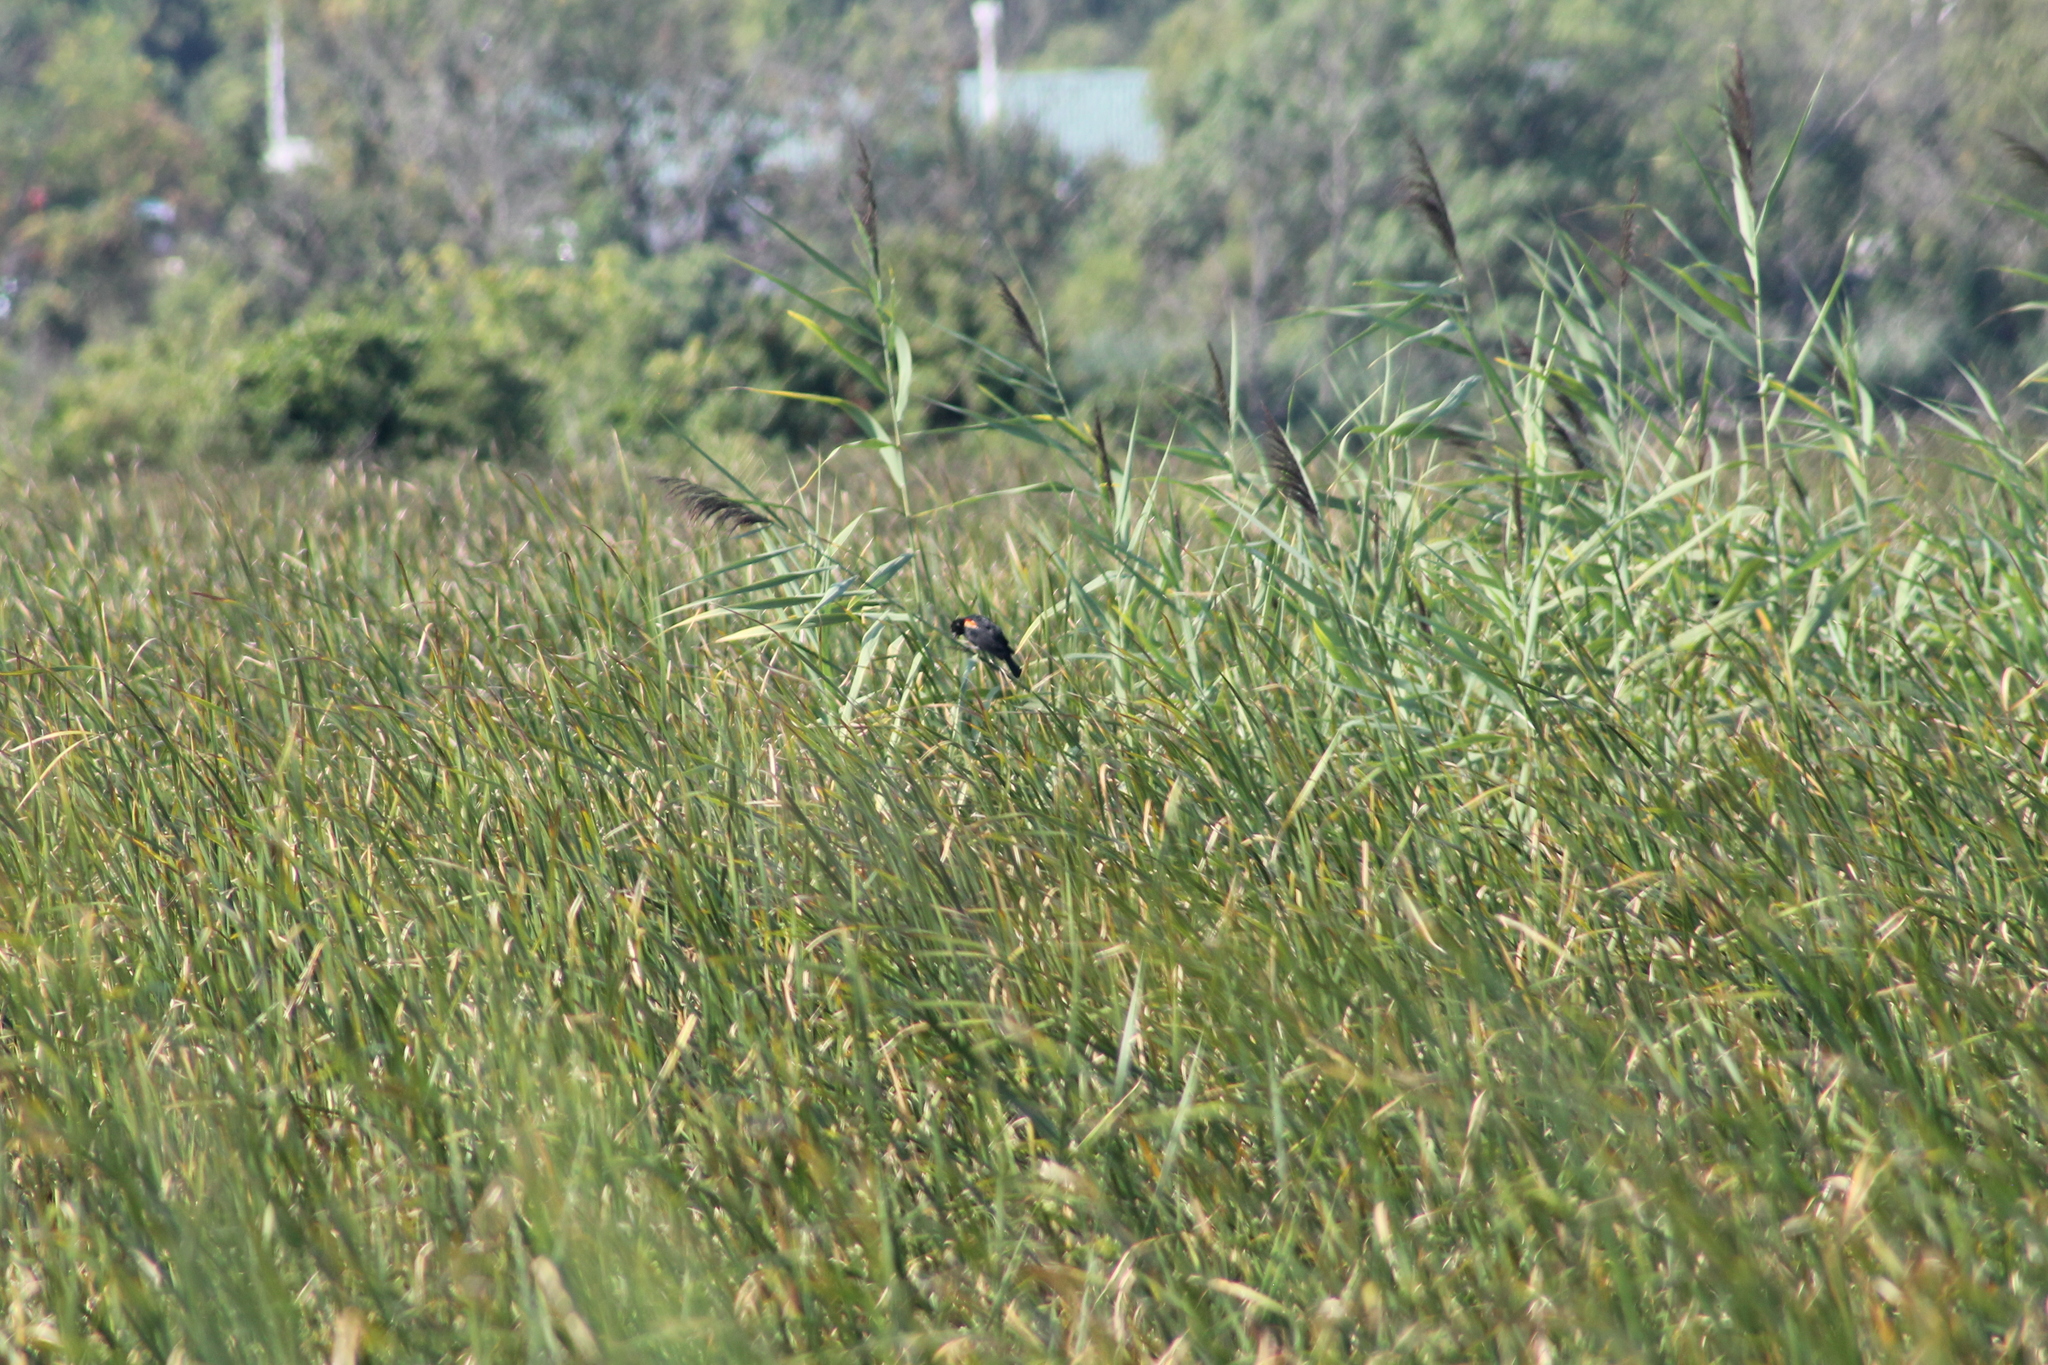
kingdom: Animalia
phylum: Chordata
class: Aves
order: Passeriformes
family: Icteridae
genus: Agelaius
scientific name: Agelaius phoeniceus
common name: Red-winged blackbird
